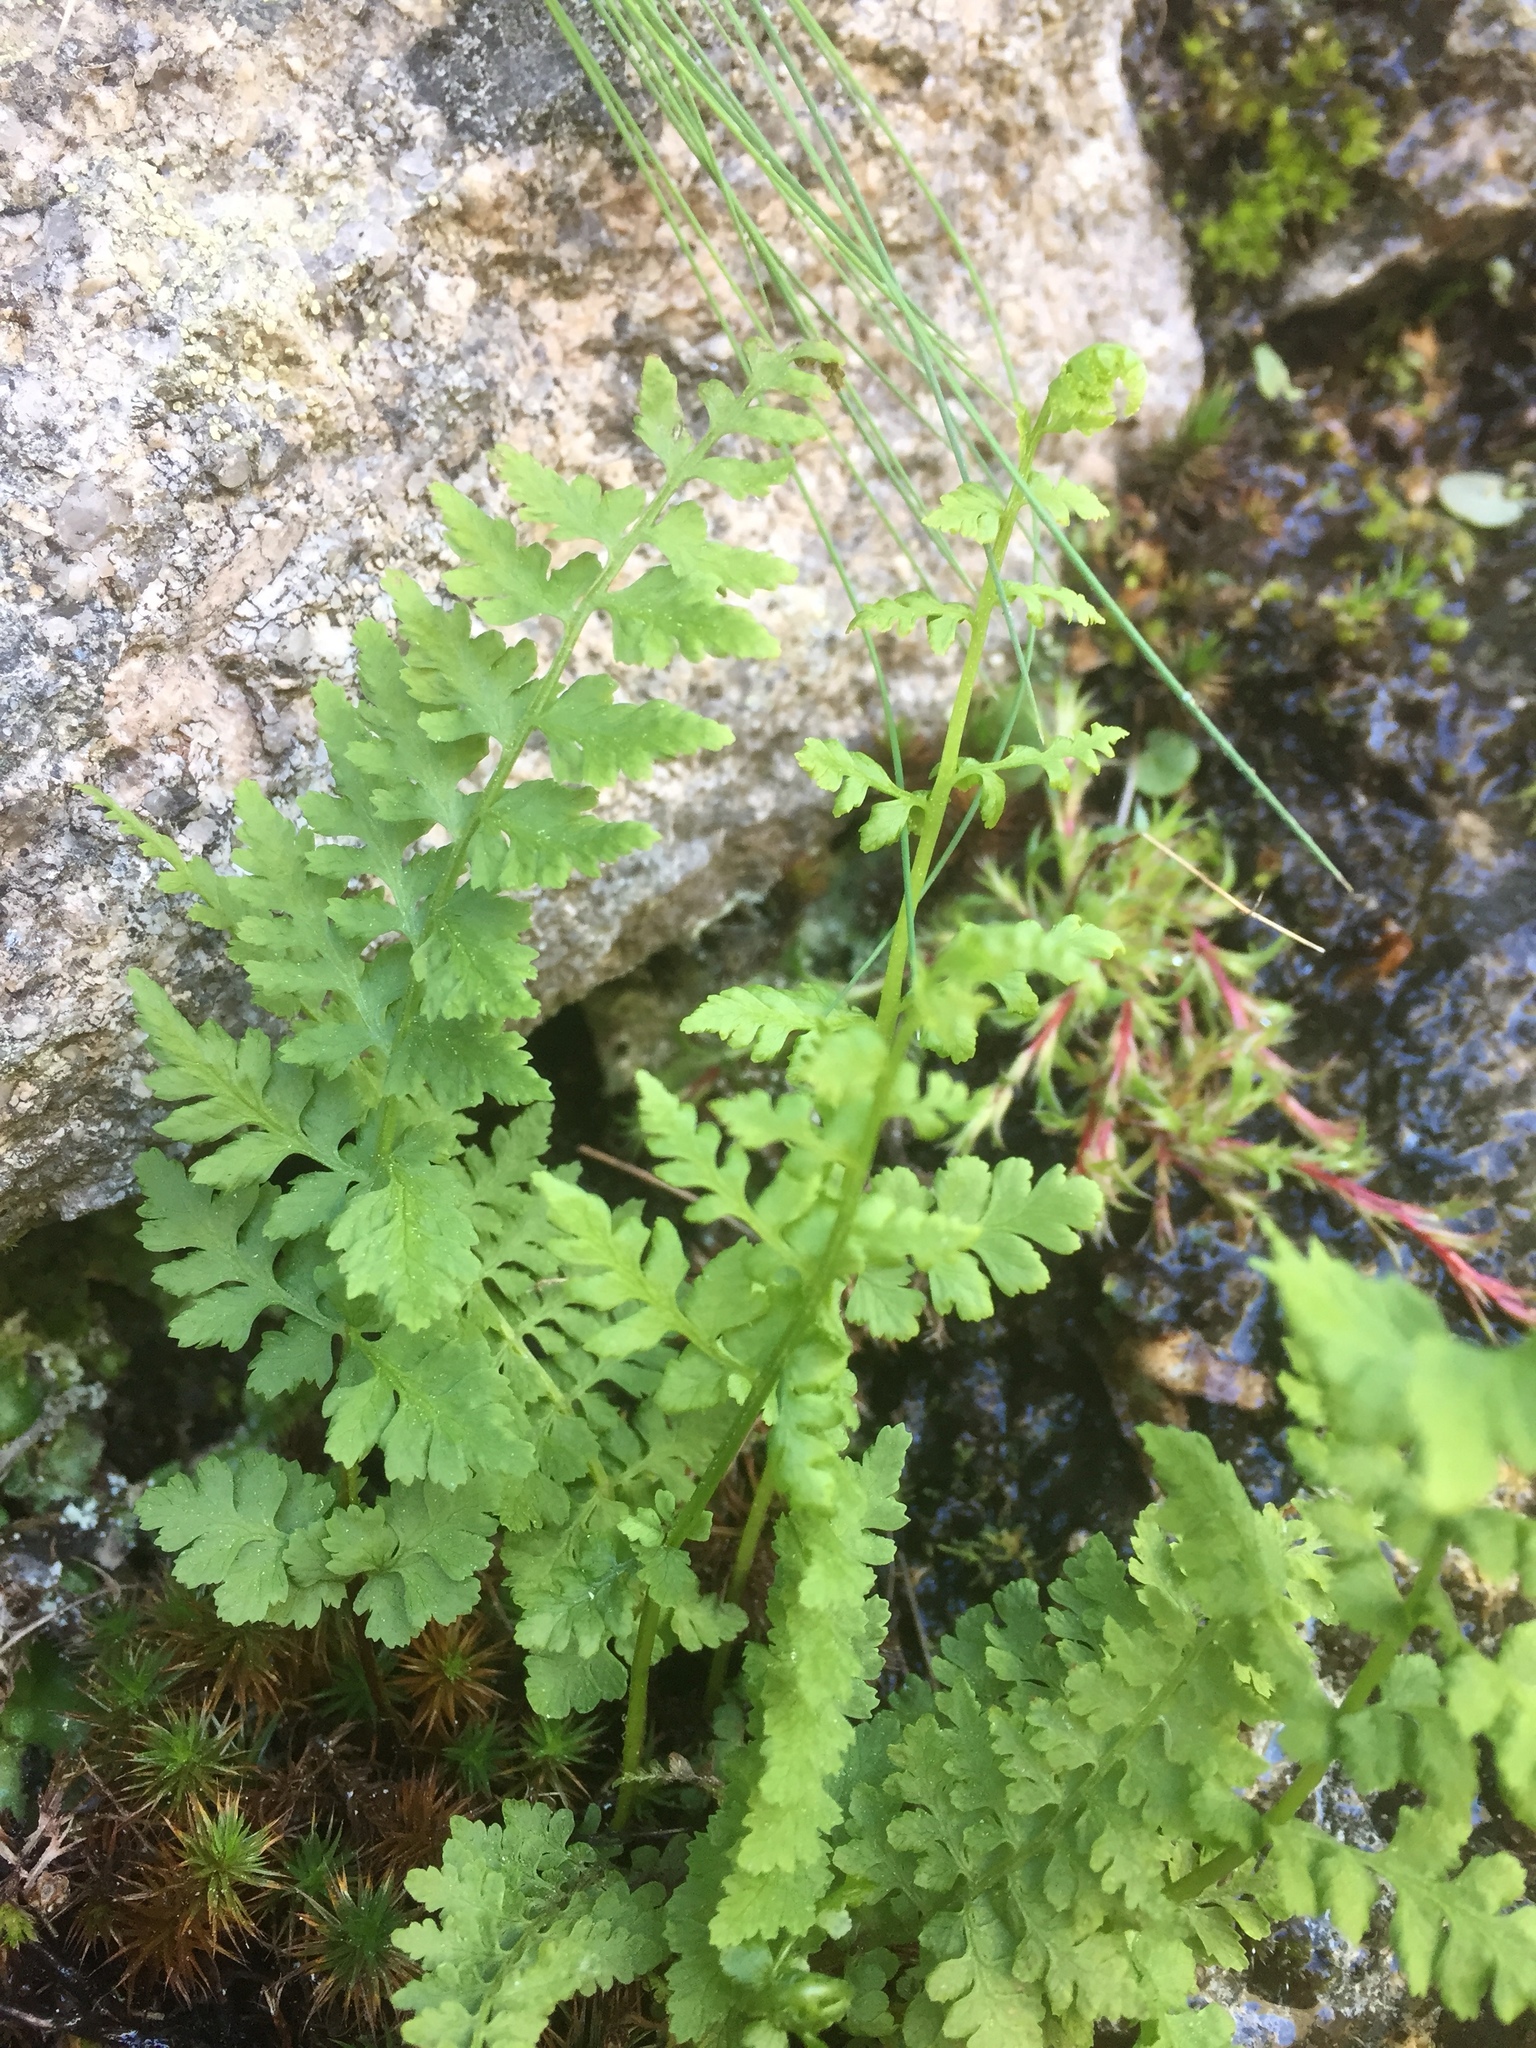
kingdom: Plantae
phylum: Tracheophyta
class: Polypodiopsida
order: Polypodiales
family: Cystopteridaceae
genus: Cystopteris
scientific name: Cystopteris fragilis
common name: Brittle bladder fern
